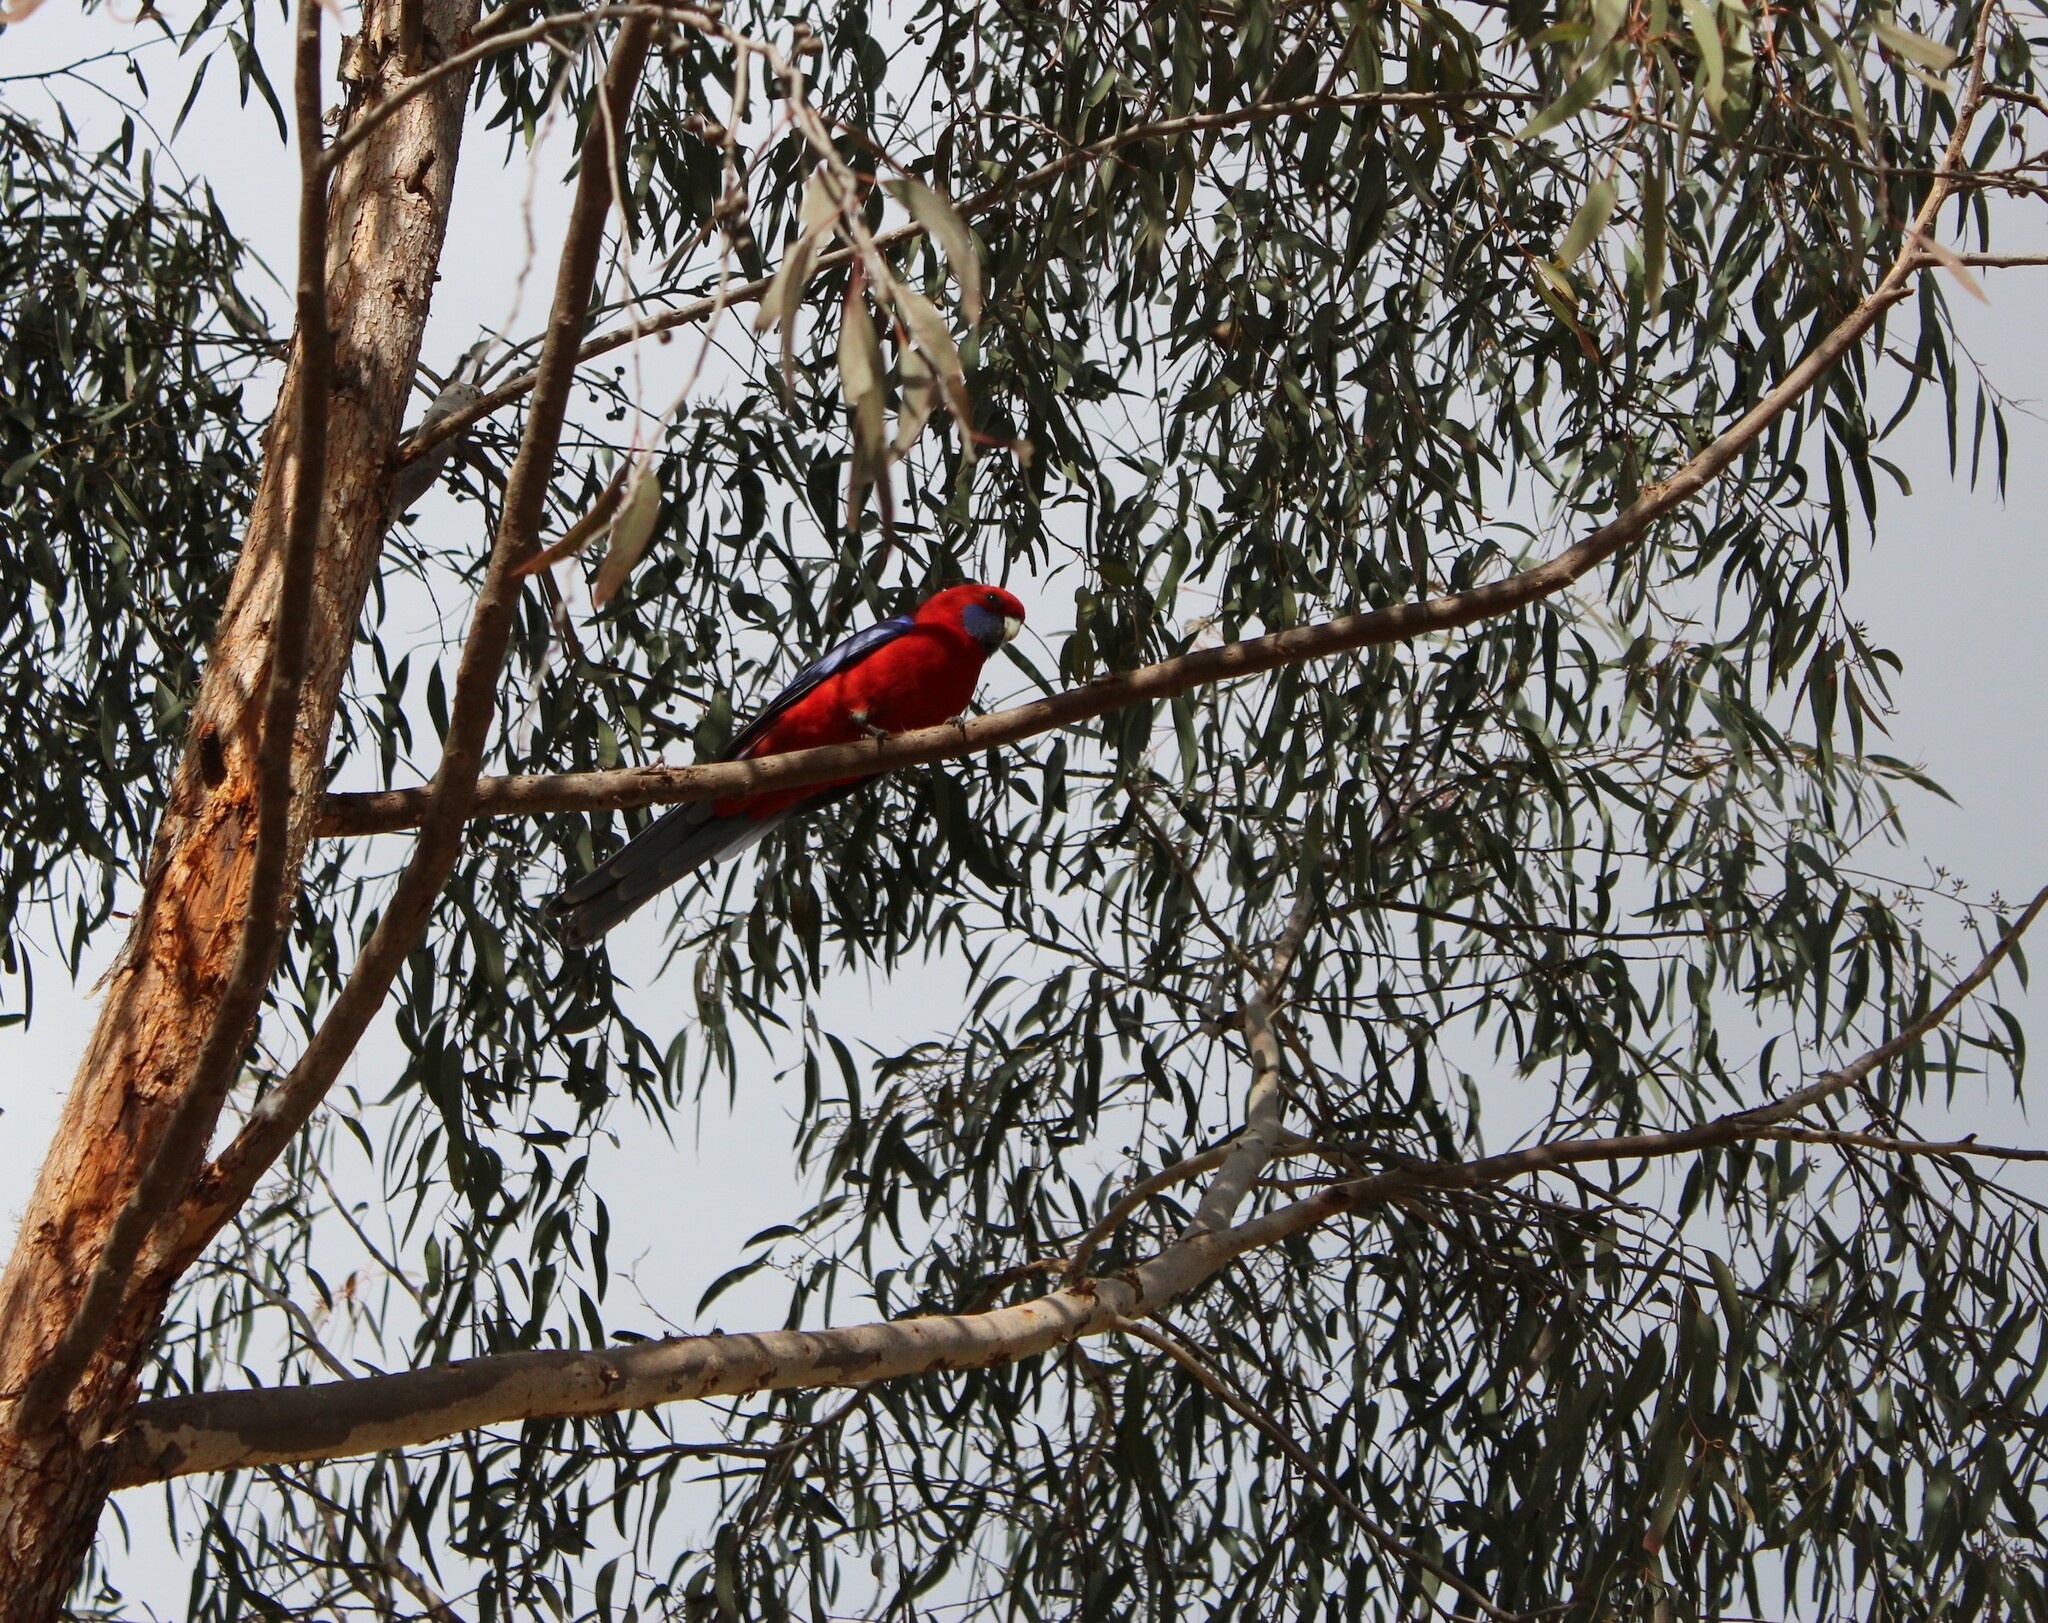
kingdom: Animalia
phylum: Chordata
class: Aves
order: Psittaciformes
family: Psittacidae
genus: Platycercus
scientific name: Platycercus elegans
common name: Crimson rosella
